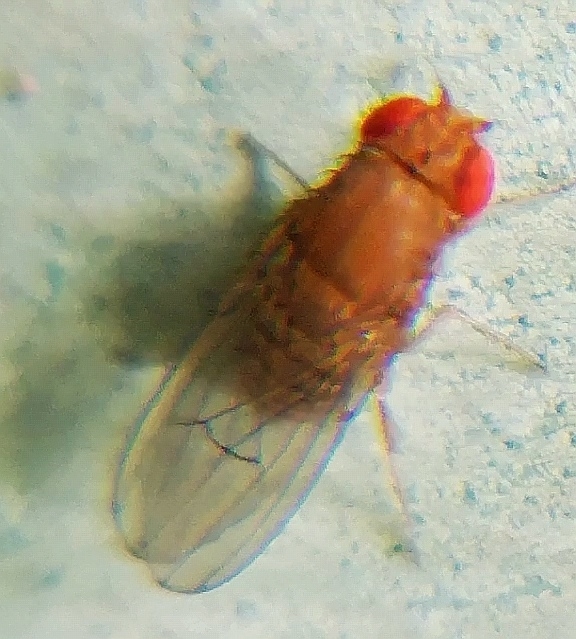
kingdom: Animalia
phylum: Arthropoda
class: Insecta
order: Diptera
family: Drosophilidae
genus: Drosophila
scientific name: Drosophila immigrans
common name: Pomace fly
